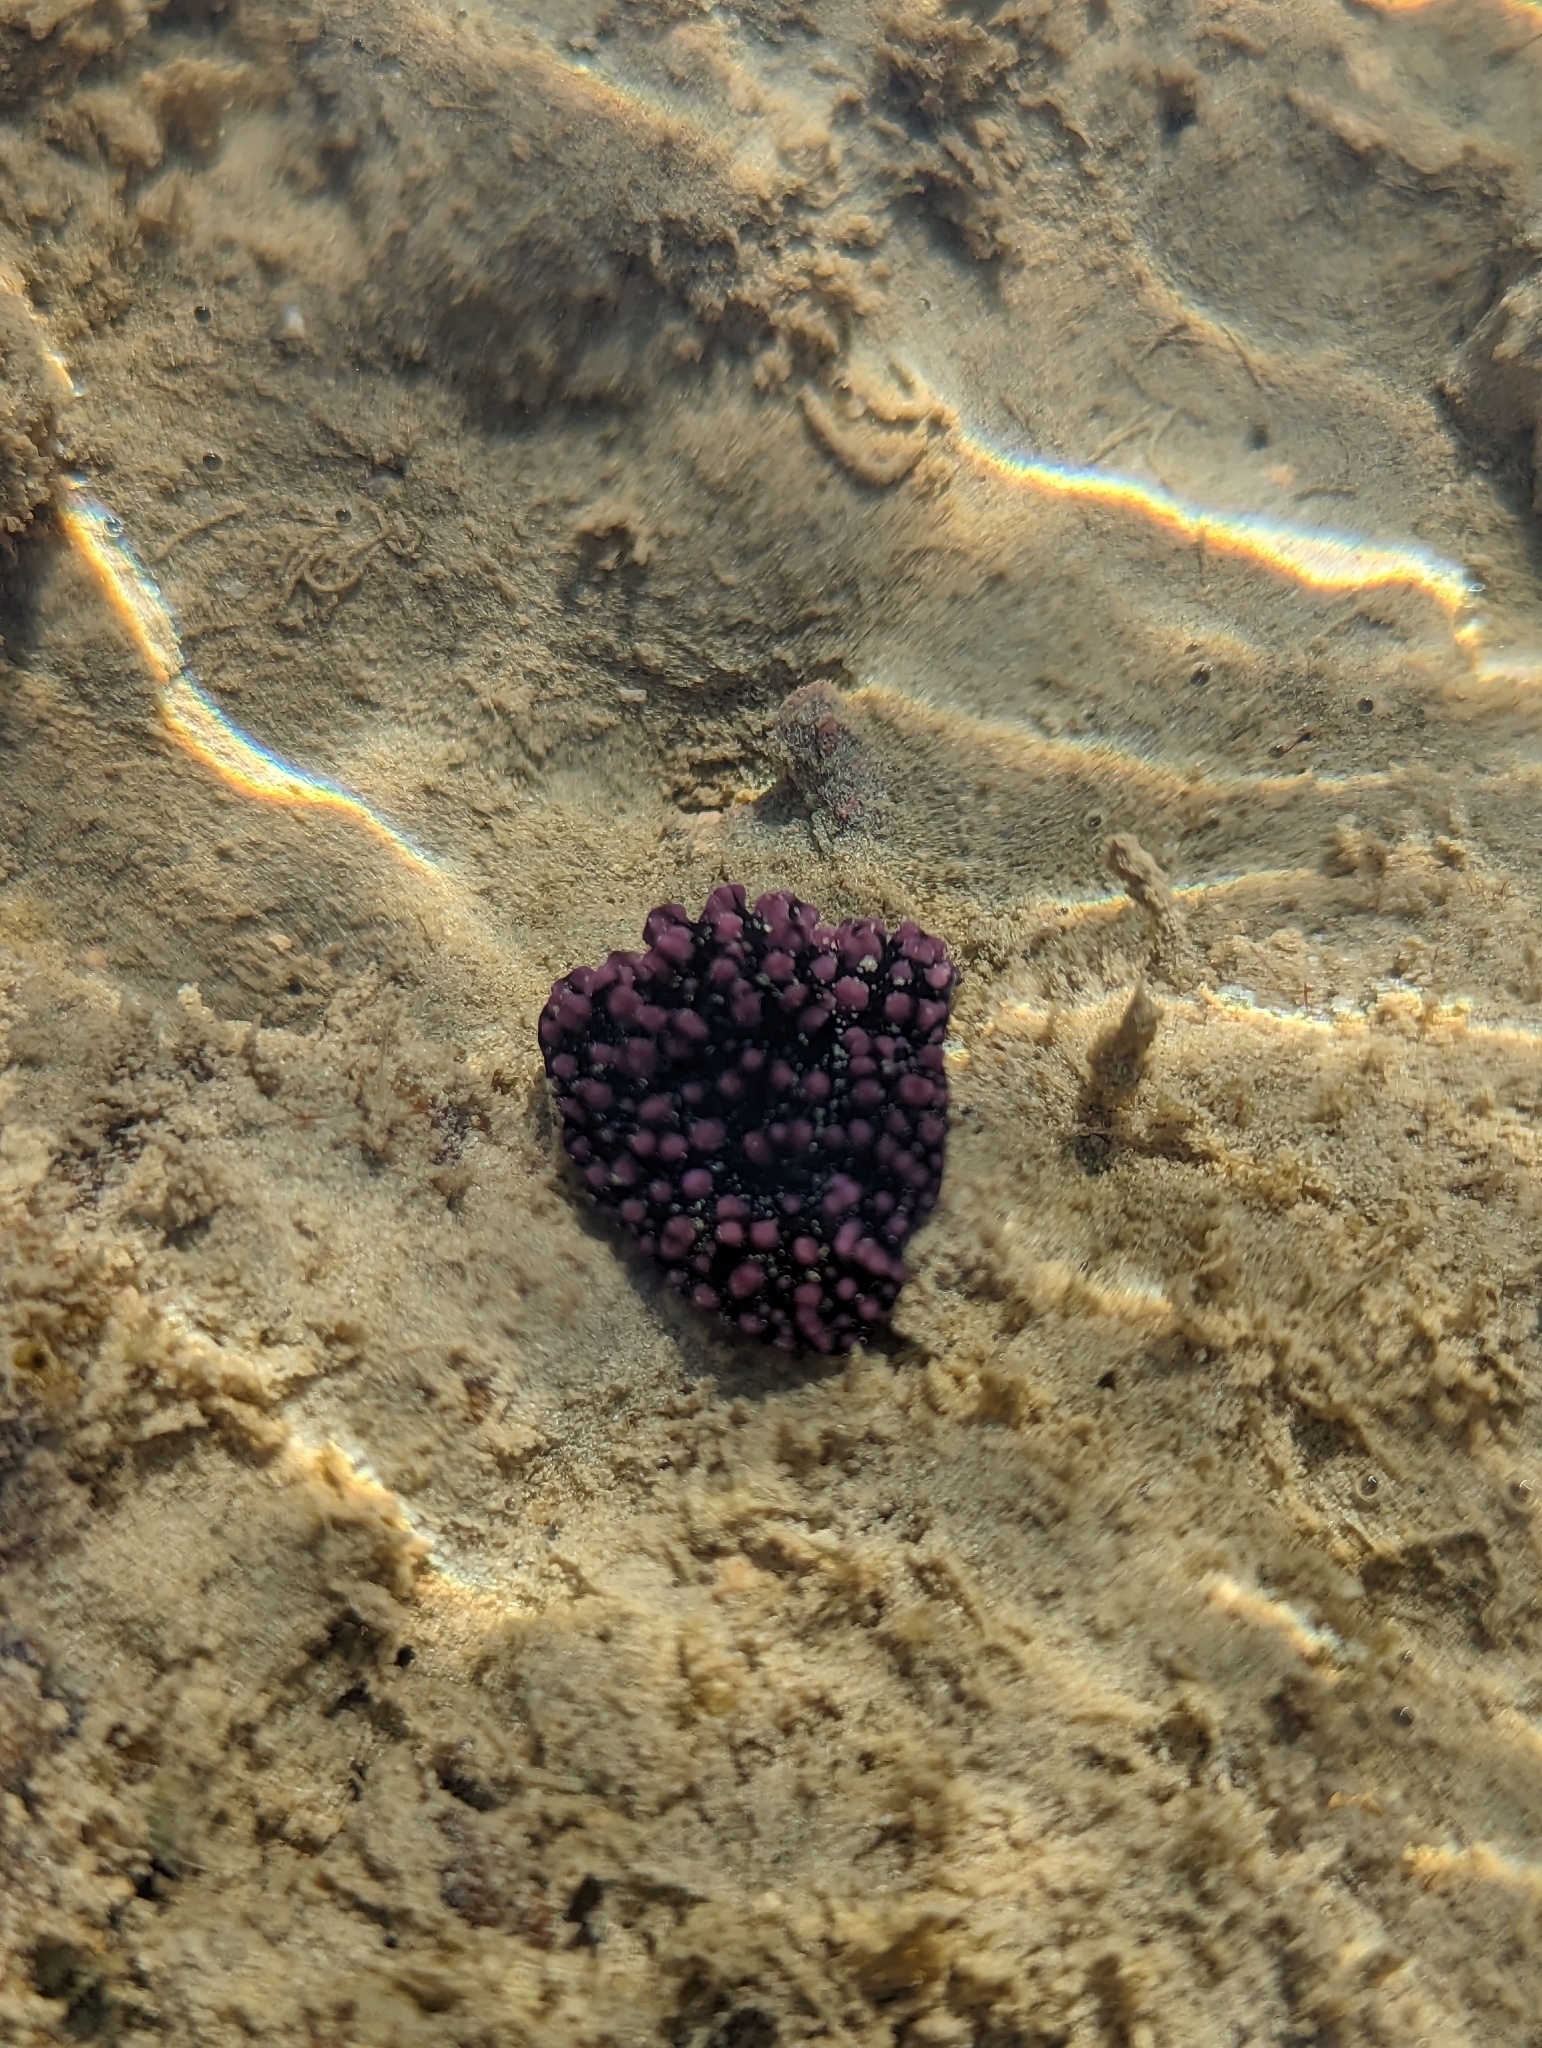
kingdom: Animalia
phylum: Mollusca
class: Gastropoda
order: Nudibranchia
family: Phyllidiidae
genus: Phyllidiella
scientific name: Phyllidiella nigra
